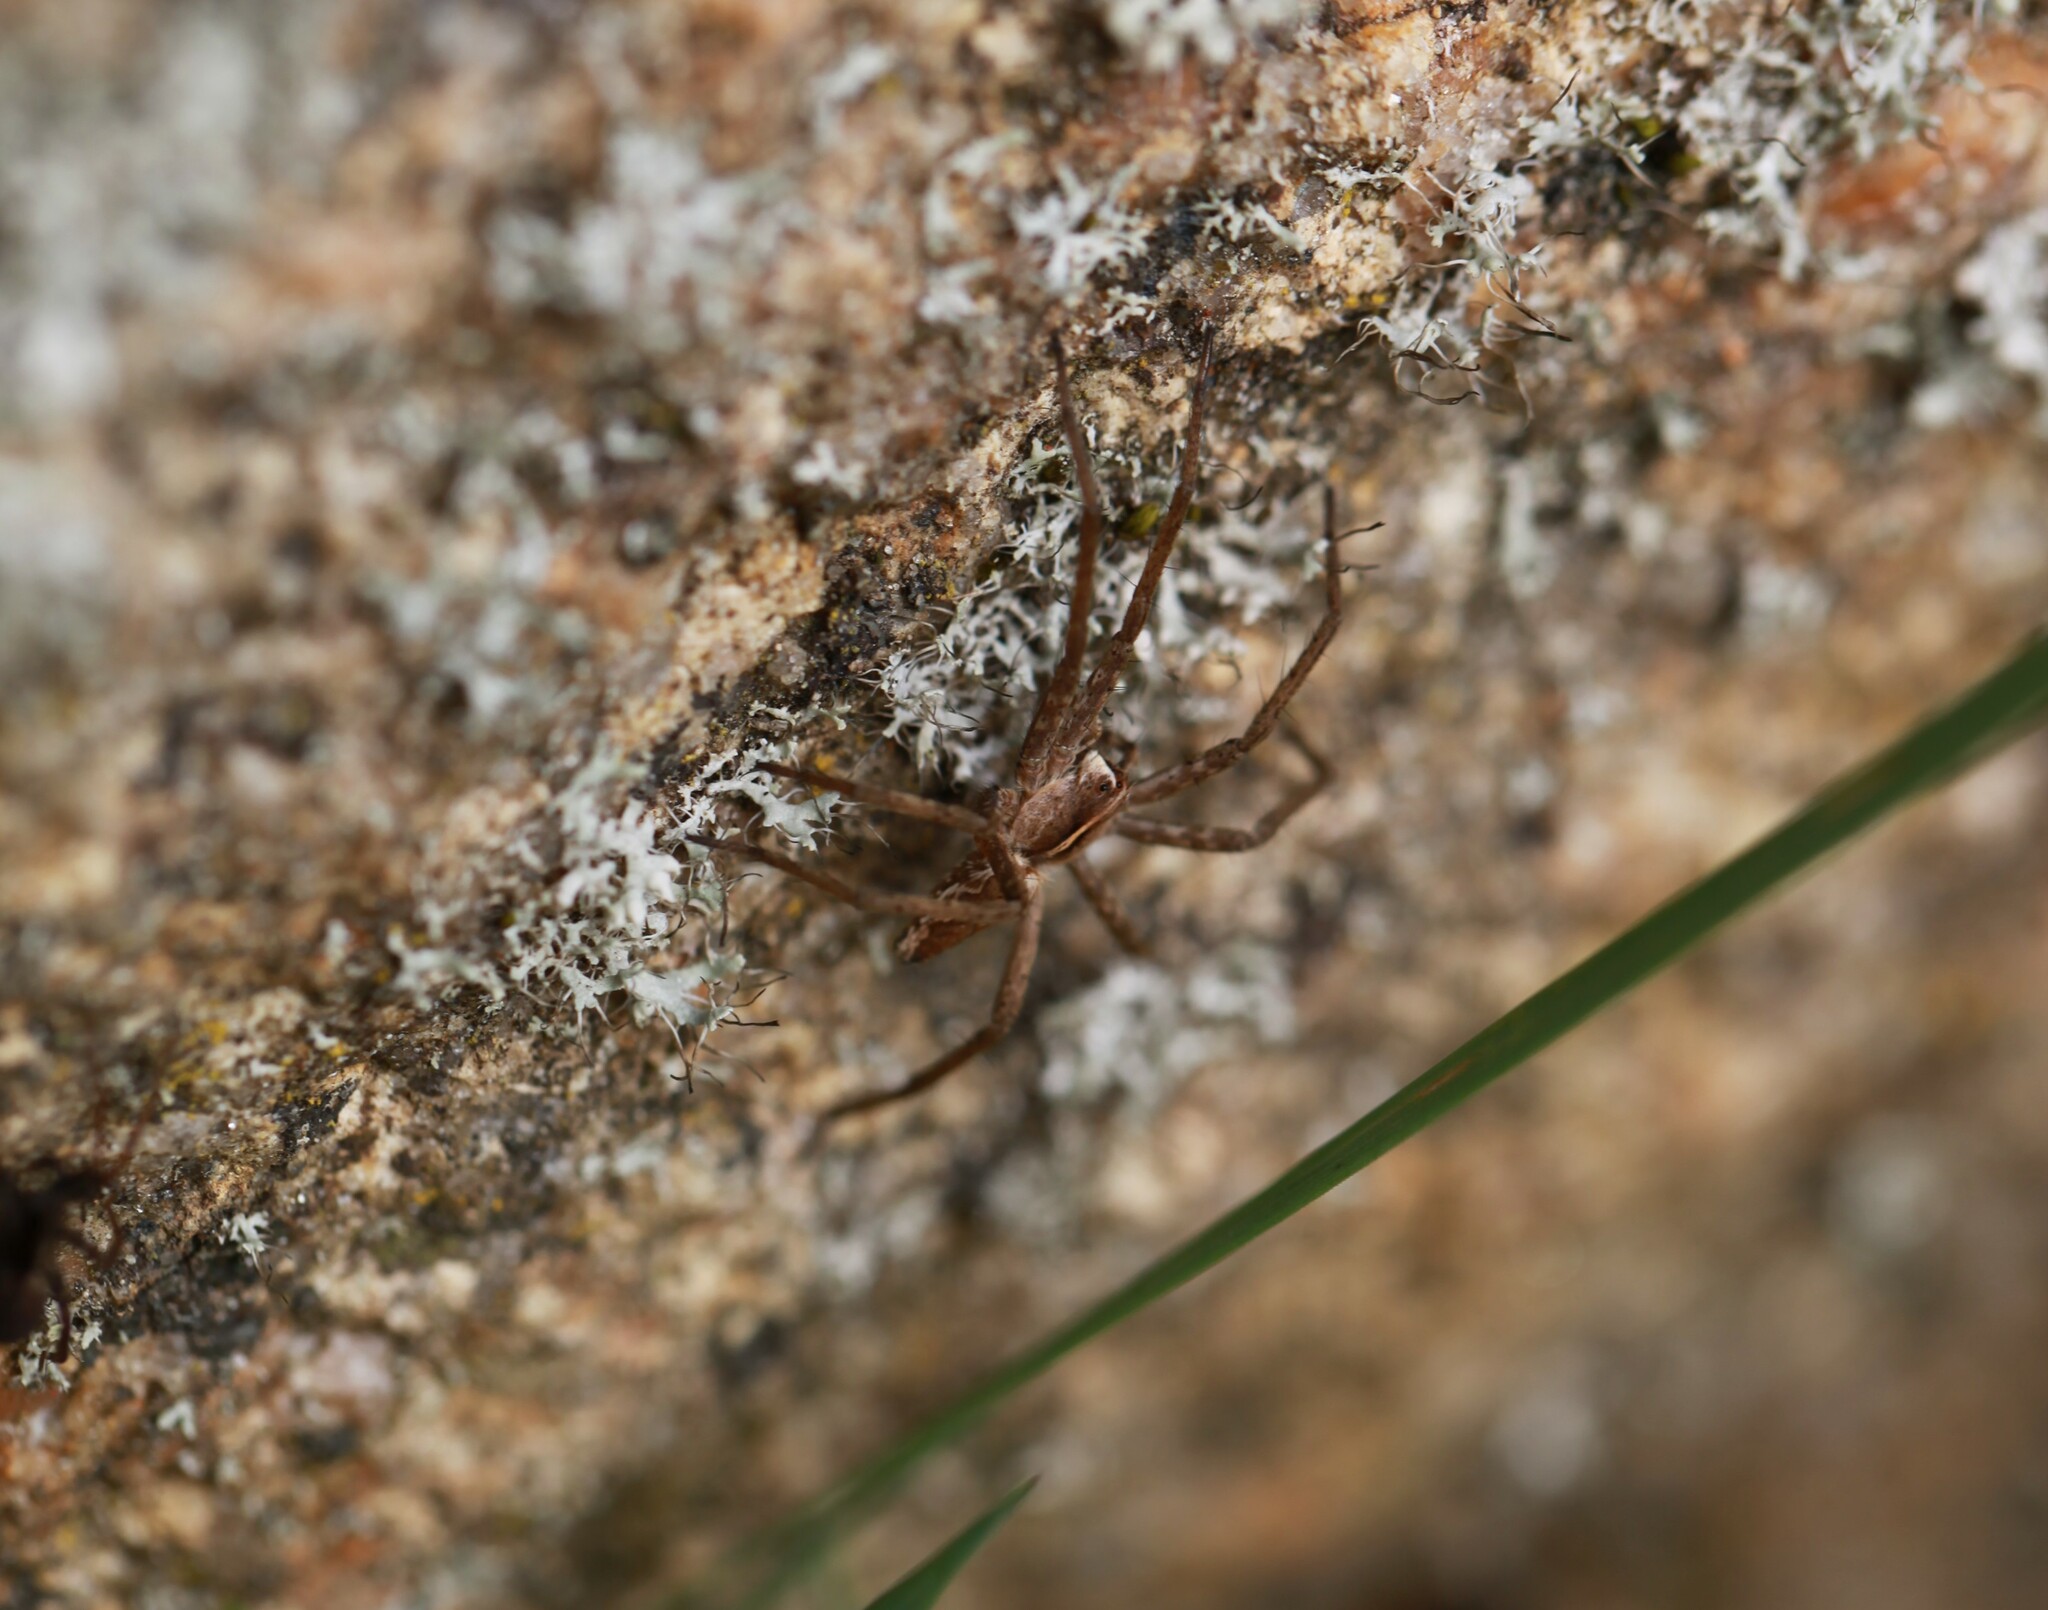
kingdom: Animalia
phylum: Arthropoda
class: Arachnida
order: Araneae
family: Pisauridae
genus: Pisaura
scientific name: Pisaura mirabilis
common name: Tent spider
